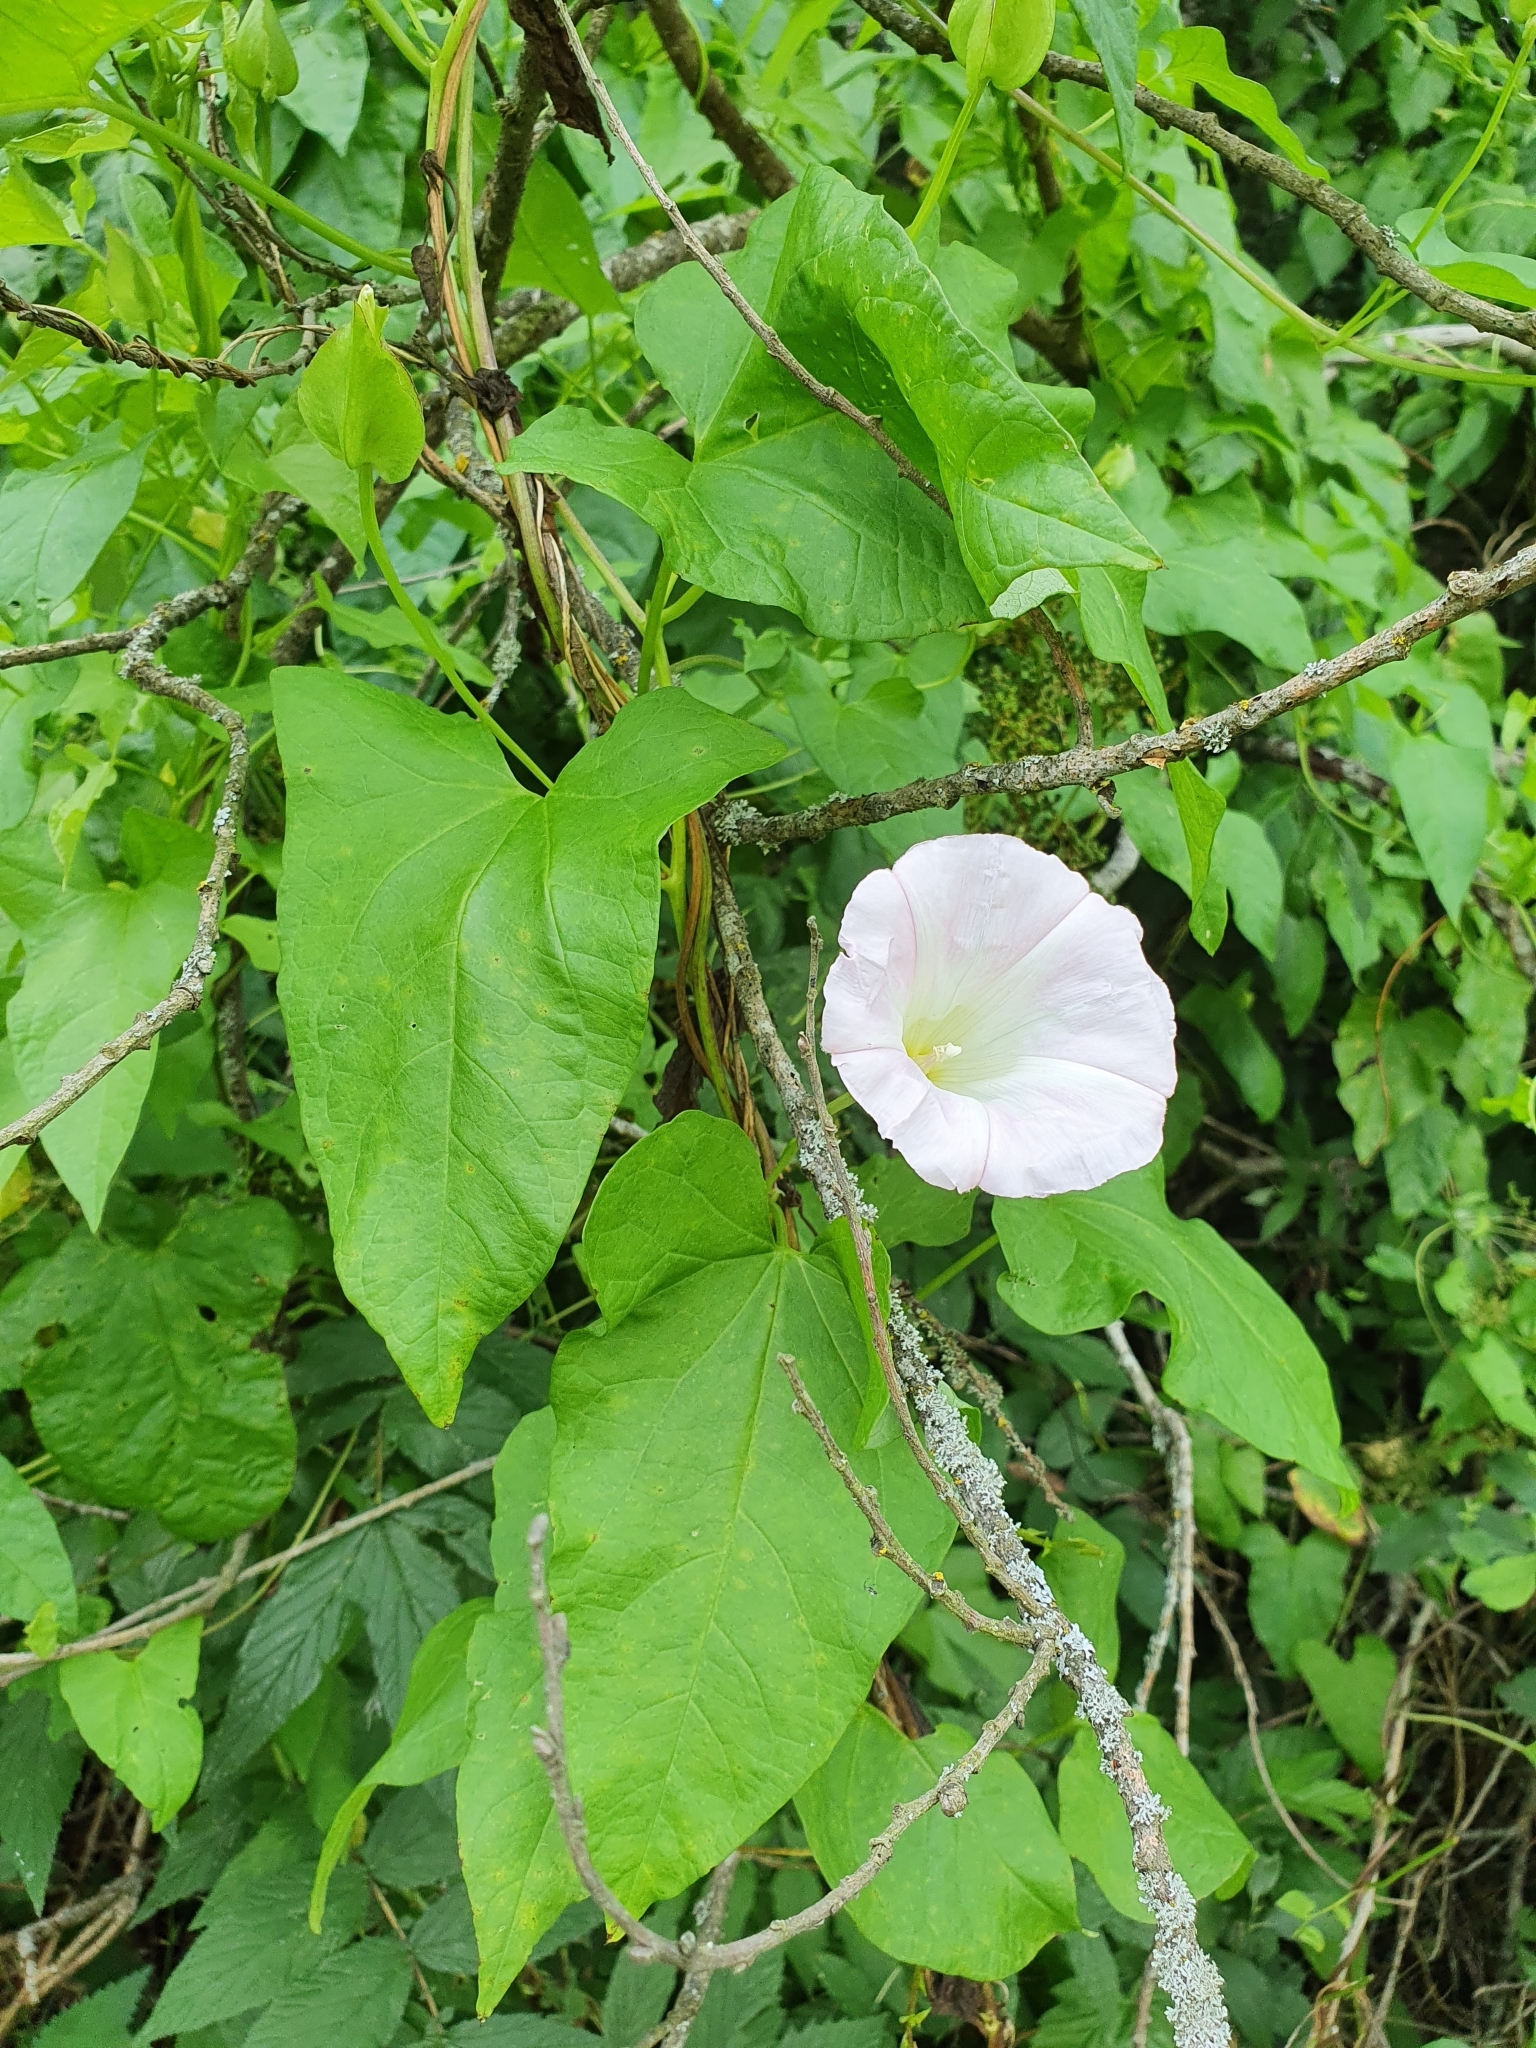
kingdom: Plantae
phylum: Tracheophyta
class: Magnoliopsida
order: Solanales
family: Convolvulaceae
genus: Calystegia
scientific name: Calystegia sepium
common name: Hedge bindweed
